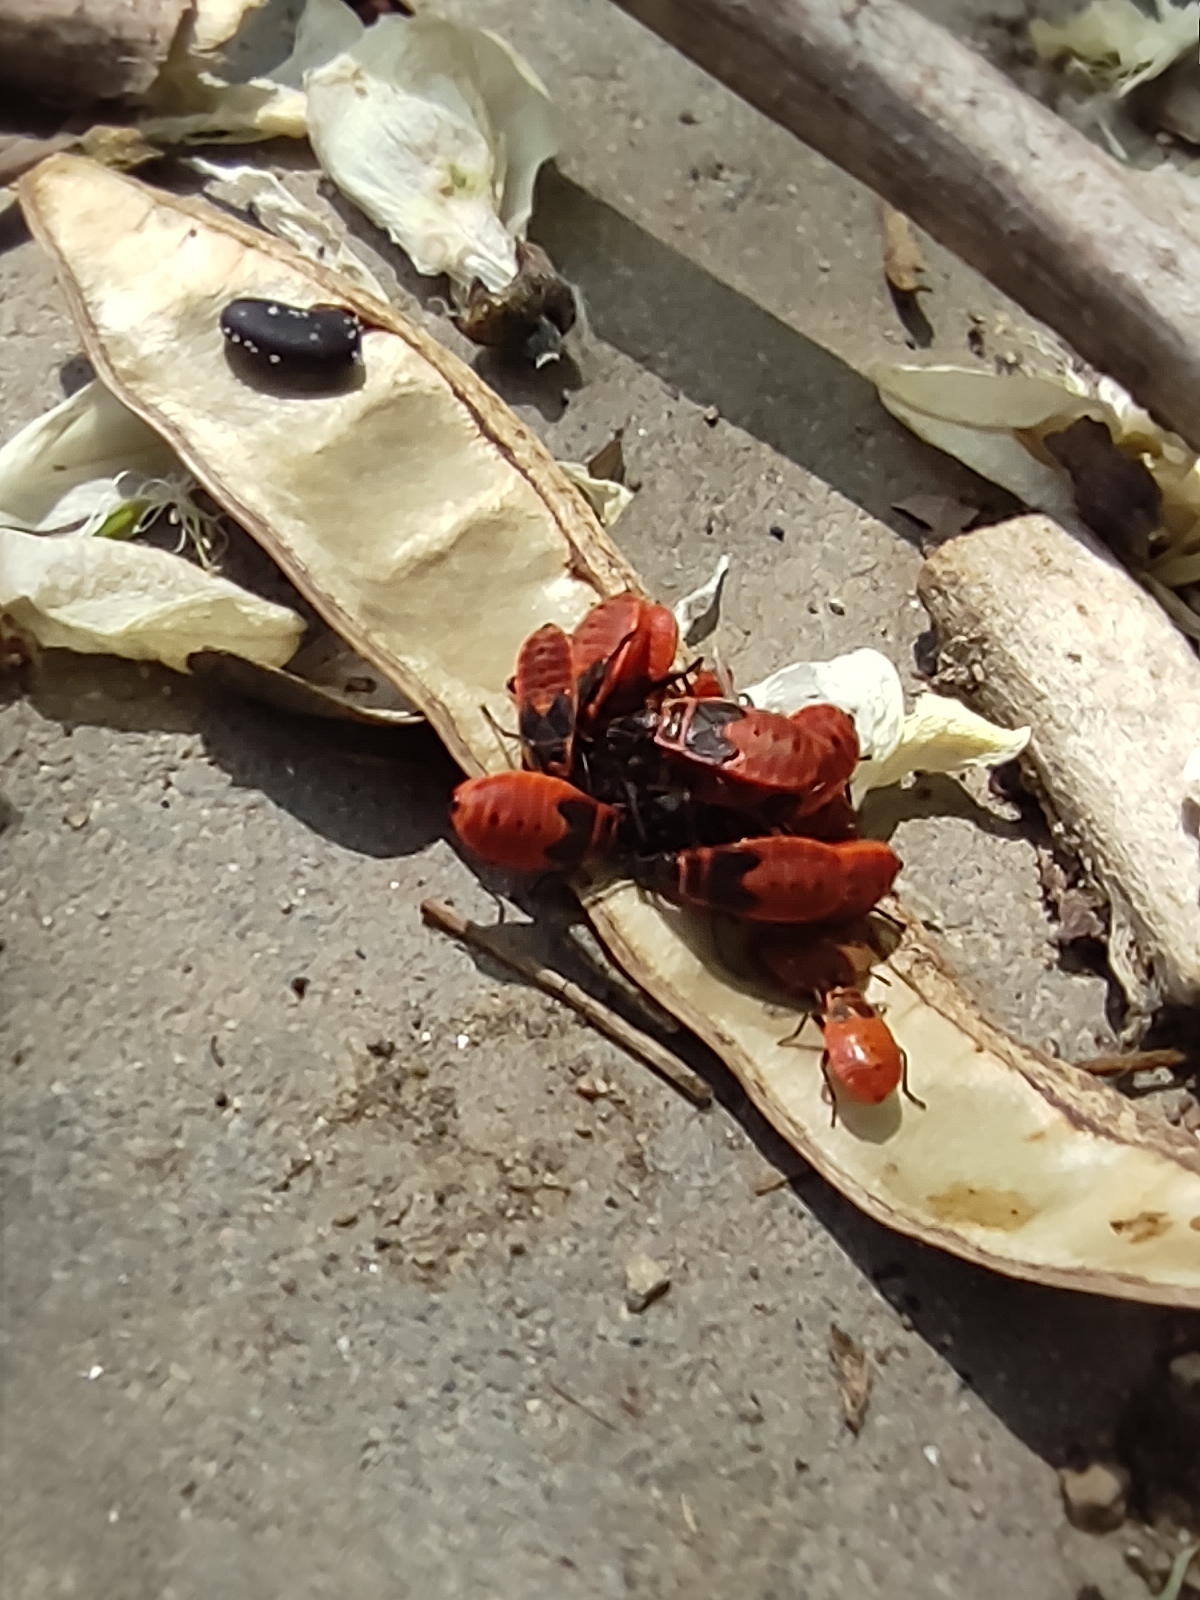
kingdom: Animalia
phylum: Arthropoda
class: Insecta
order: Hemiptera
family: Pyrrhocoridae
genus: Pyrrhocoris
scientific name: Pyrrhocoris apterus
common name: Firebug
